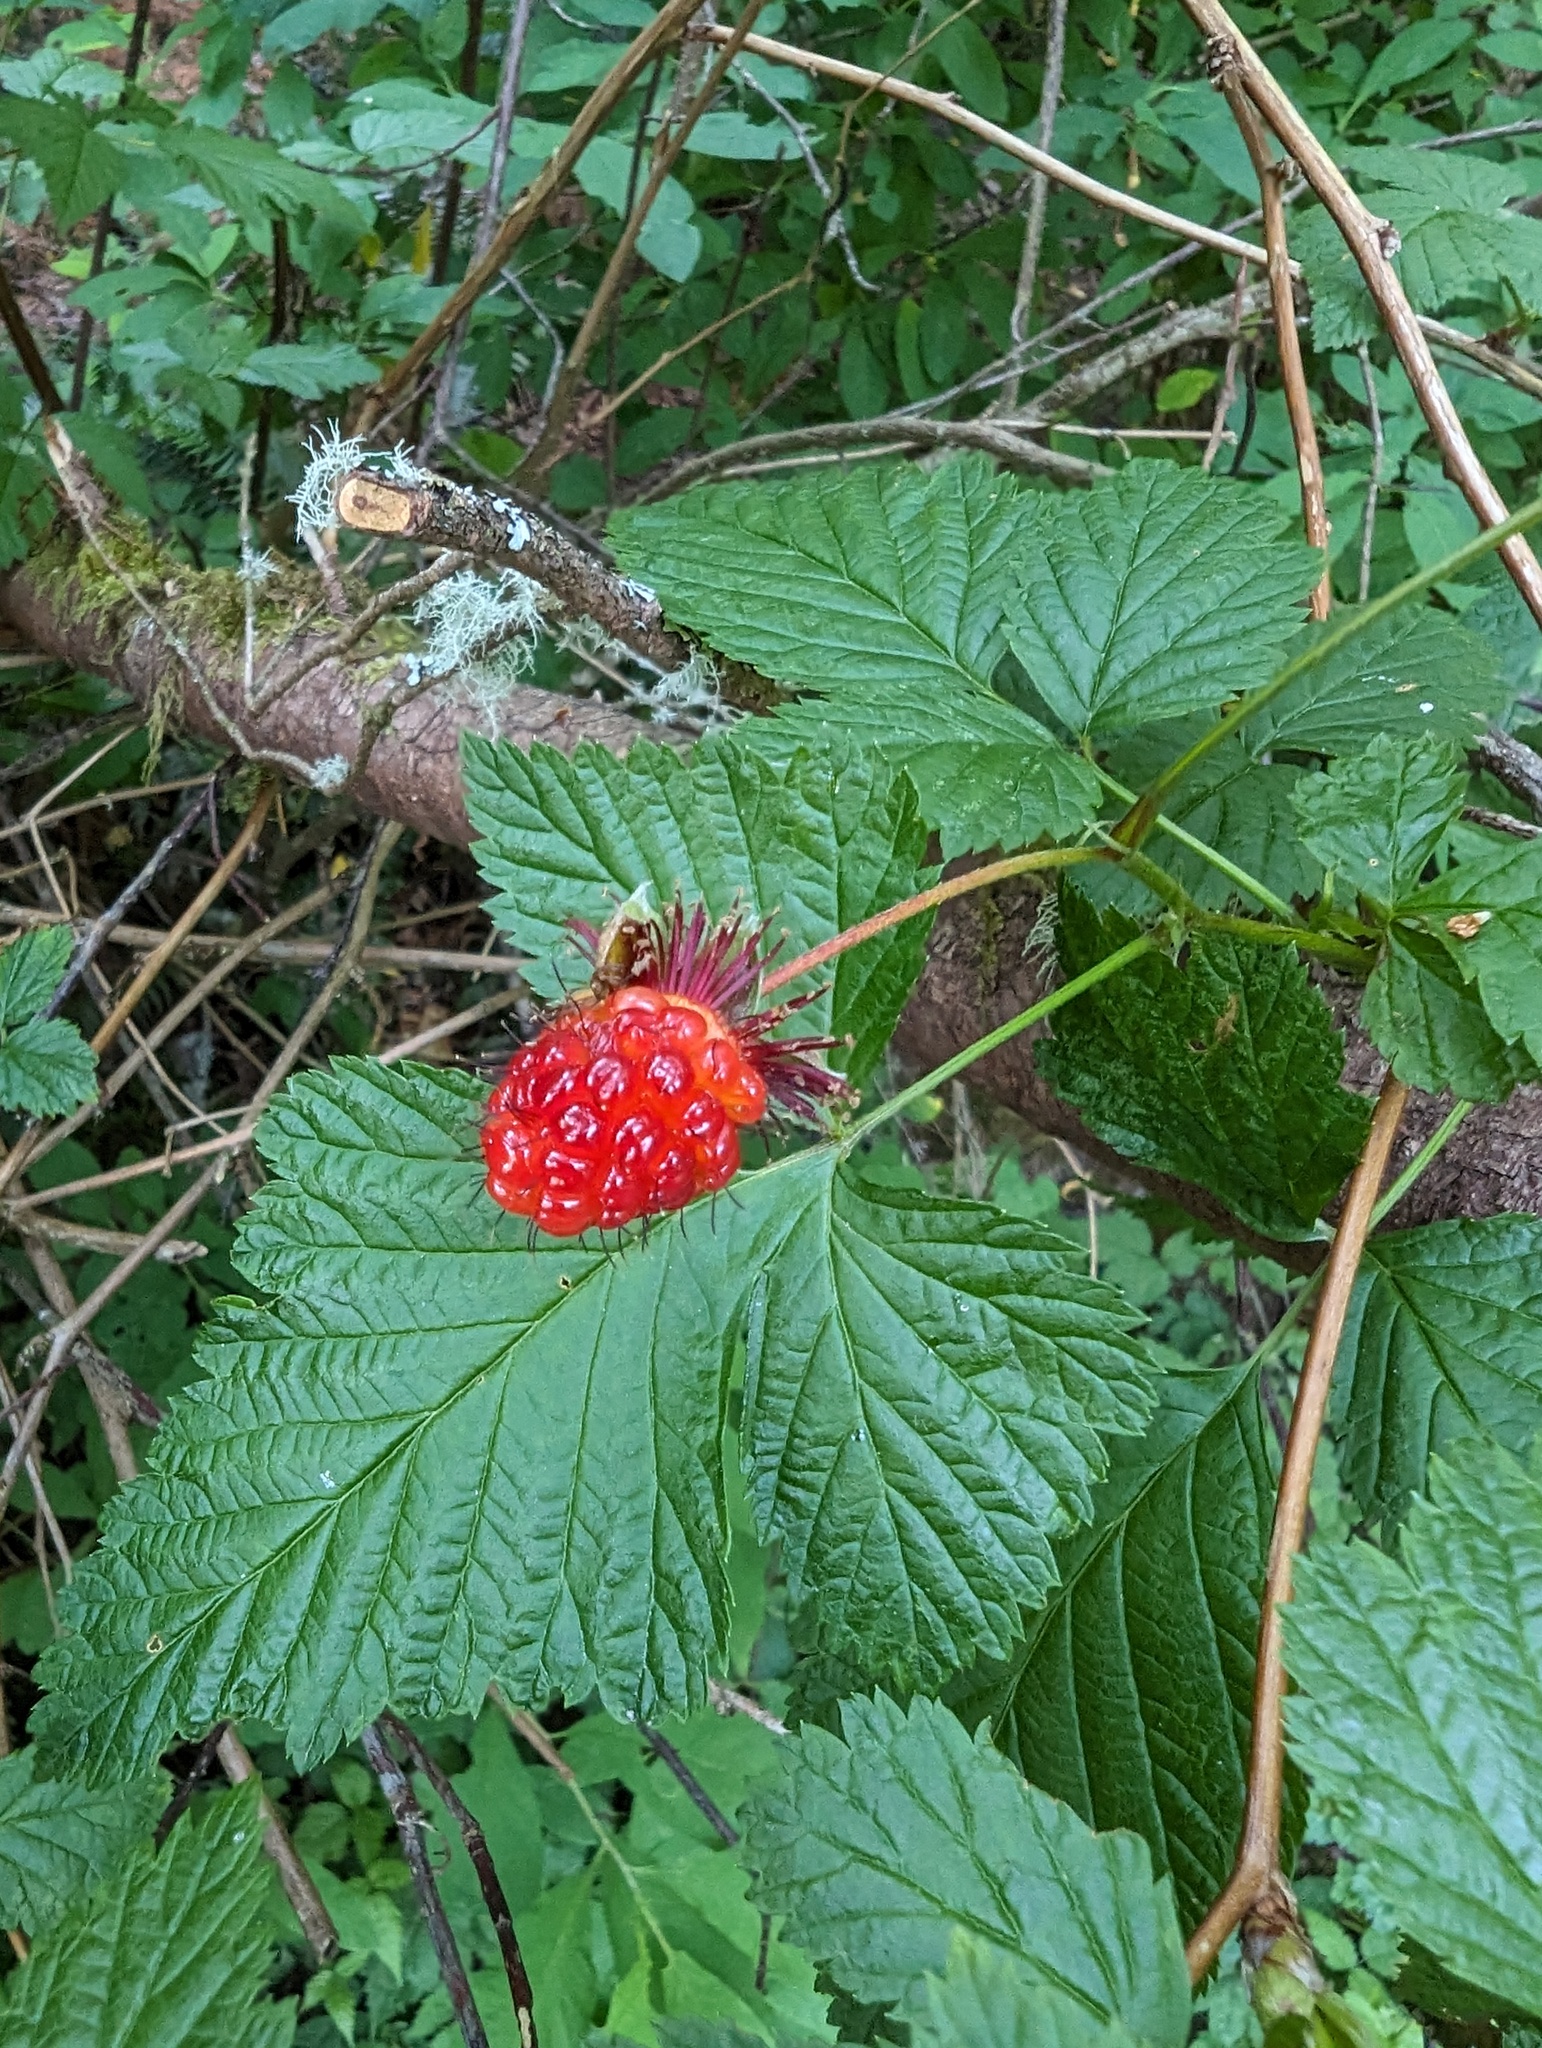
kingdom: Plantae
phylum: Tracheophyta
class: Magnoliopsida
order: Rosales
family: Rosaceae
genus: Rubus
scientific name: Rubus spectabilis
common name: Salmonberry
